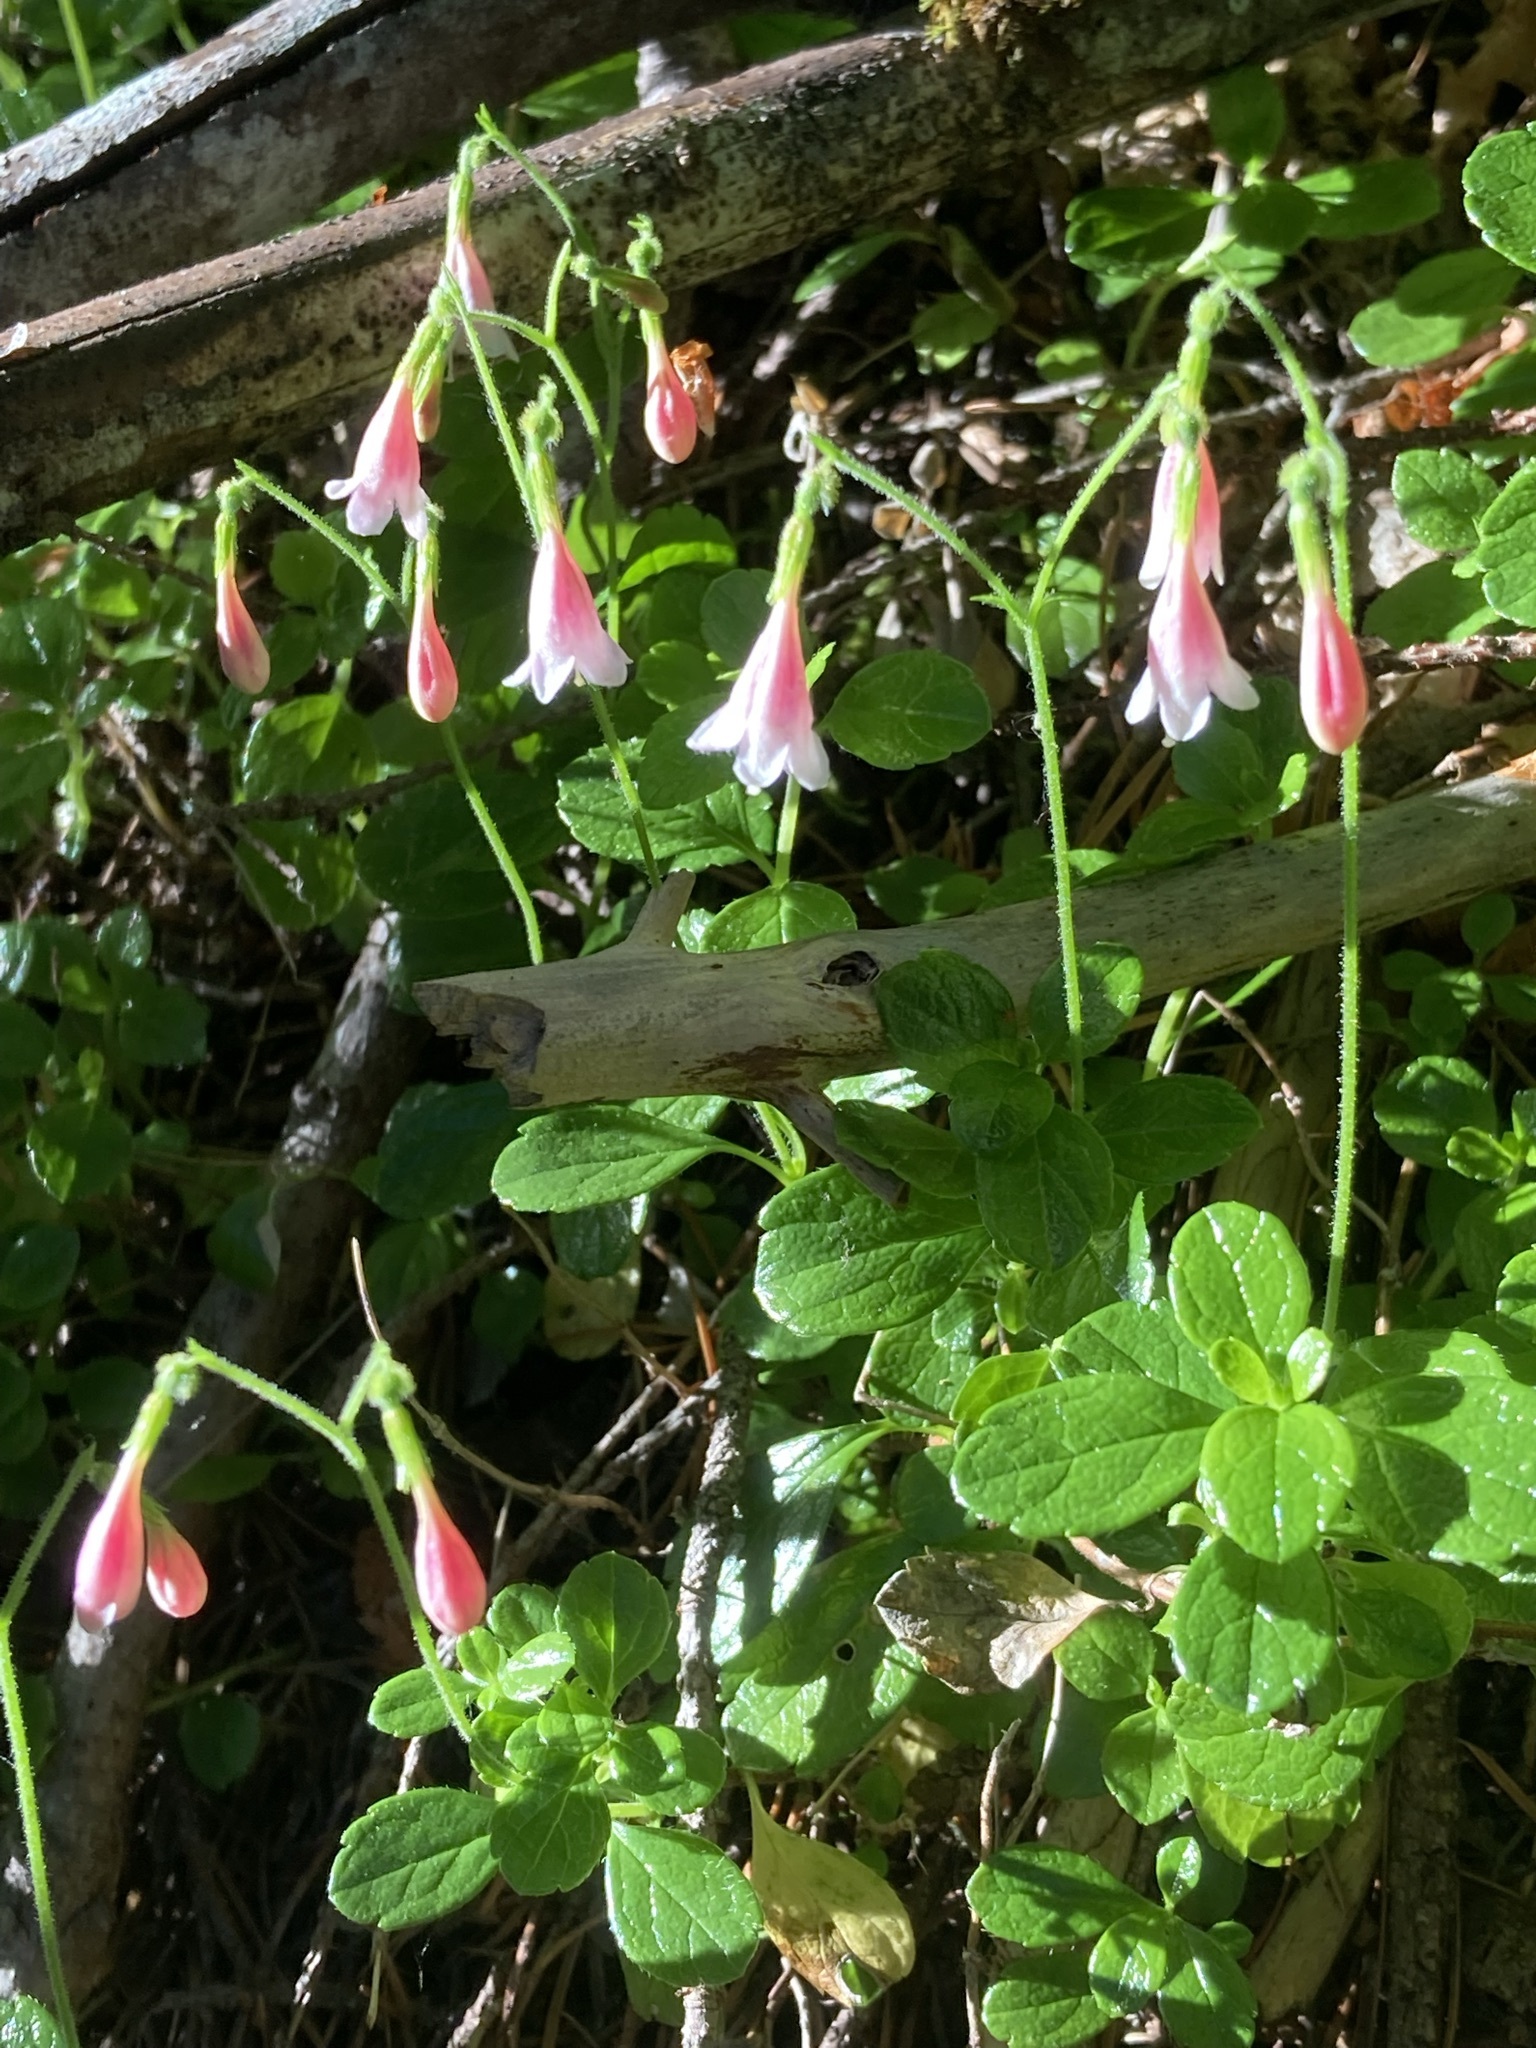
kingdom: Plantae
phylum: Tracheophyta
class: Magnoliopsida
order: Dipsacales
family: Caprifoliaceae
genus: Linnaea
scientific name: Linnaea borealis
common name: Twinflower
